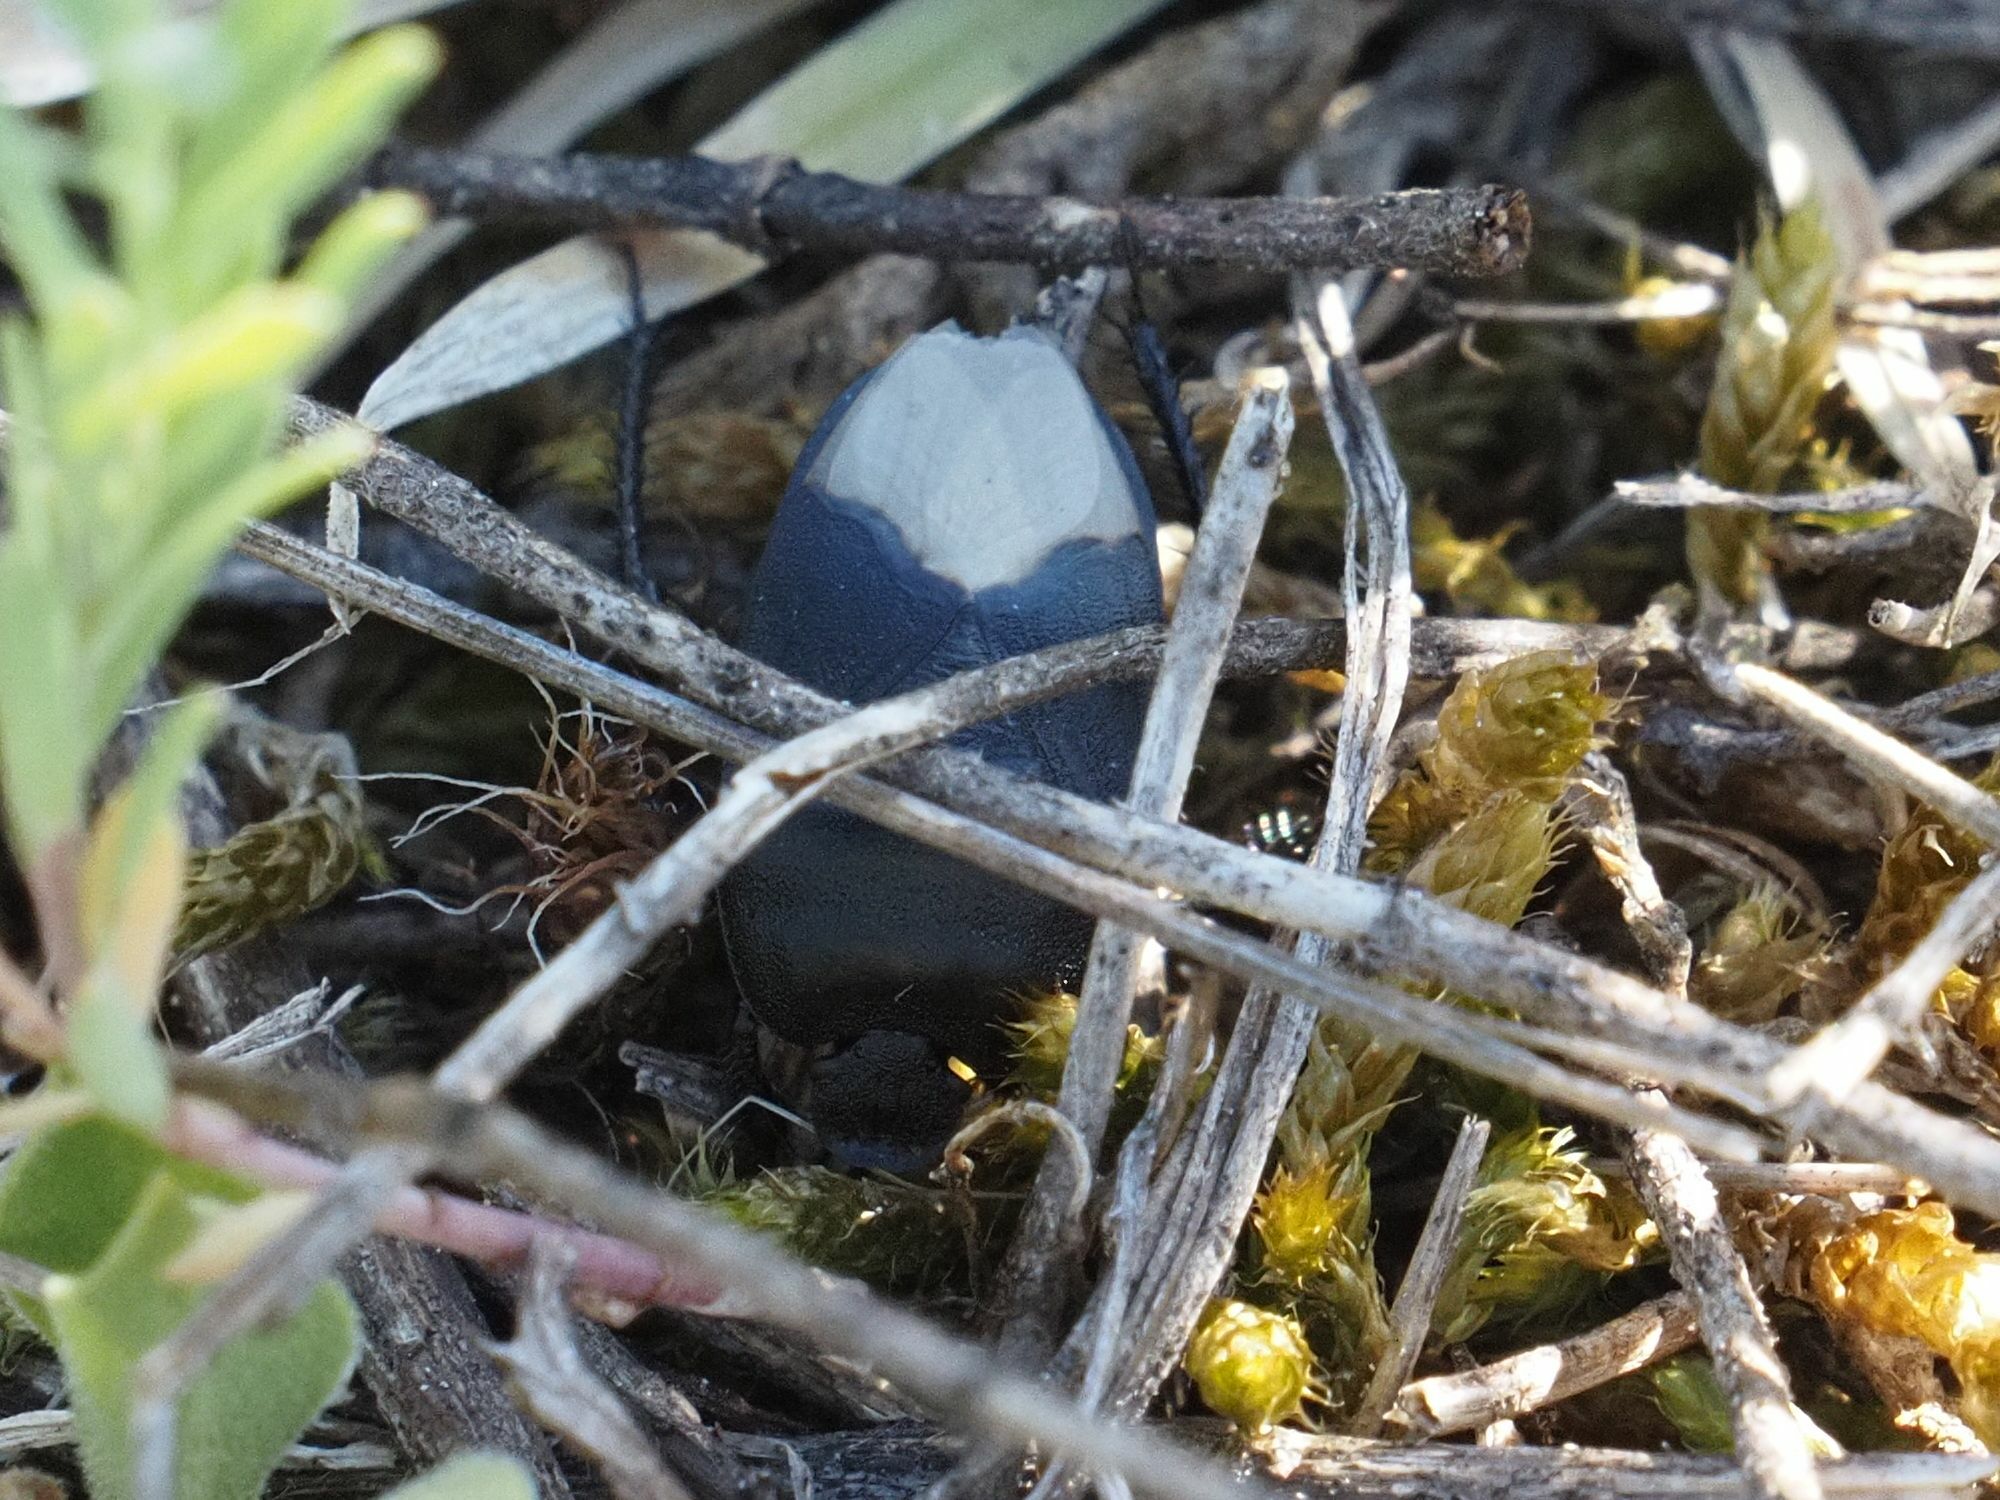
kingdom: Animalia
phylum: Arthropoda
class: Insecta
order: Hemiptera
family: Cydnidae
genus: Cydnus
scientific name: Cydnus aterrimus
